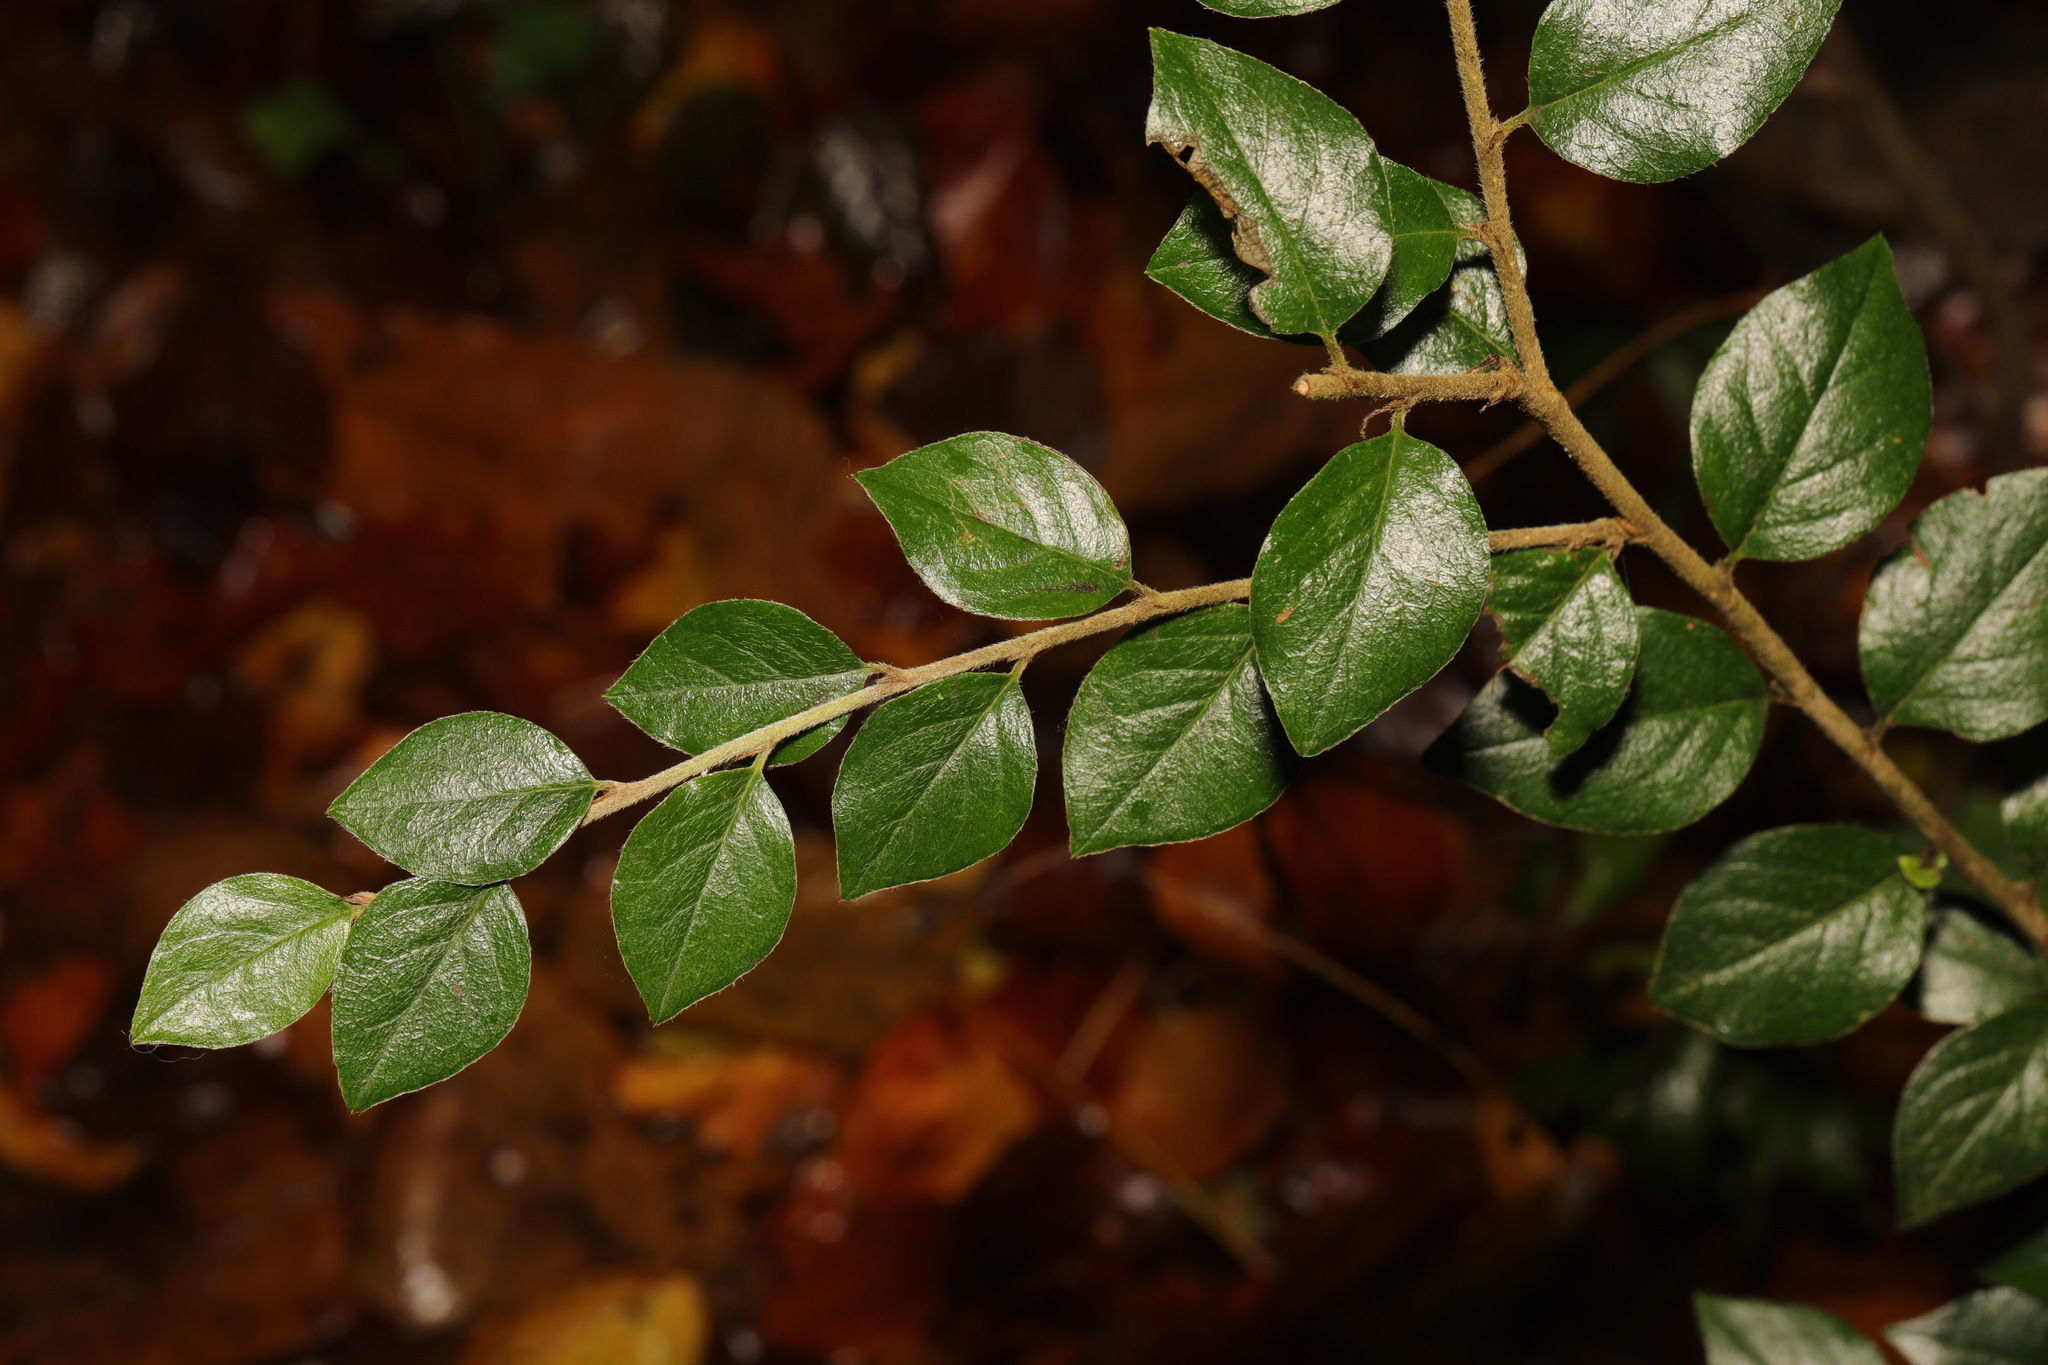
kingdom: Plantae
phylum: Tracheophyta
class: Magnoliopsida
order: Rosales
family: Rosaceae
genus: Cotoneaster
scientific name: Cotoneaster simonsii
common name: Himalayan cotoneaster
